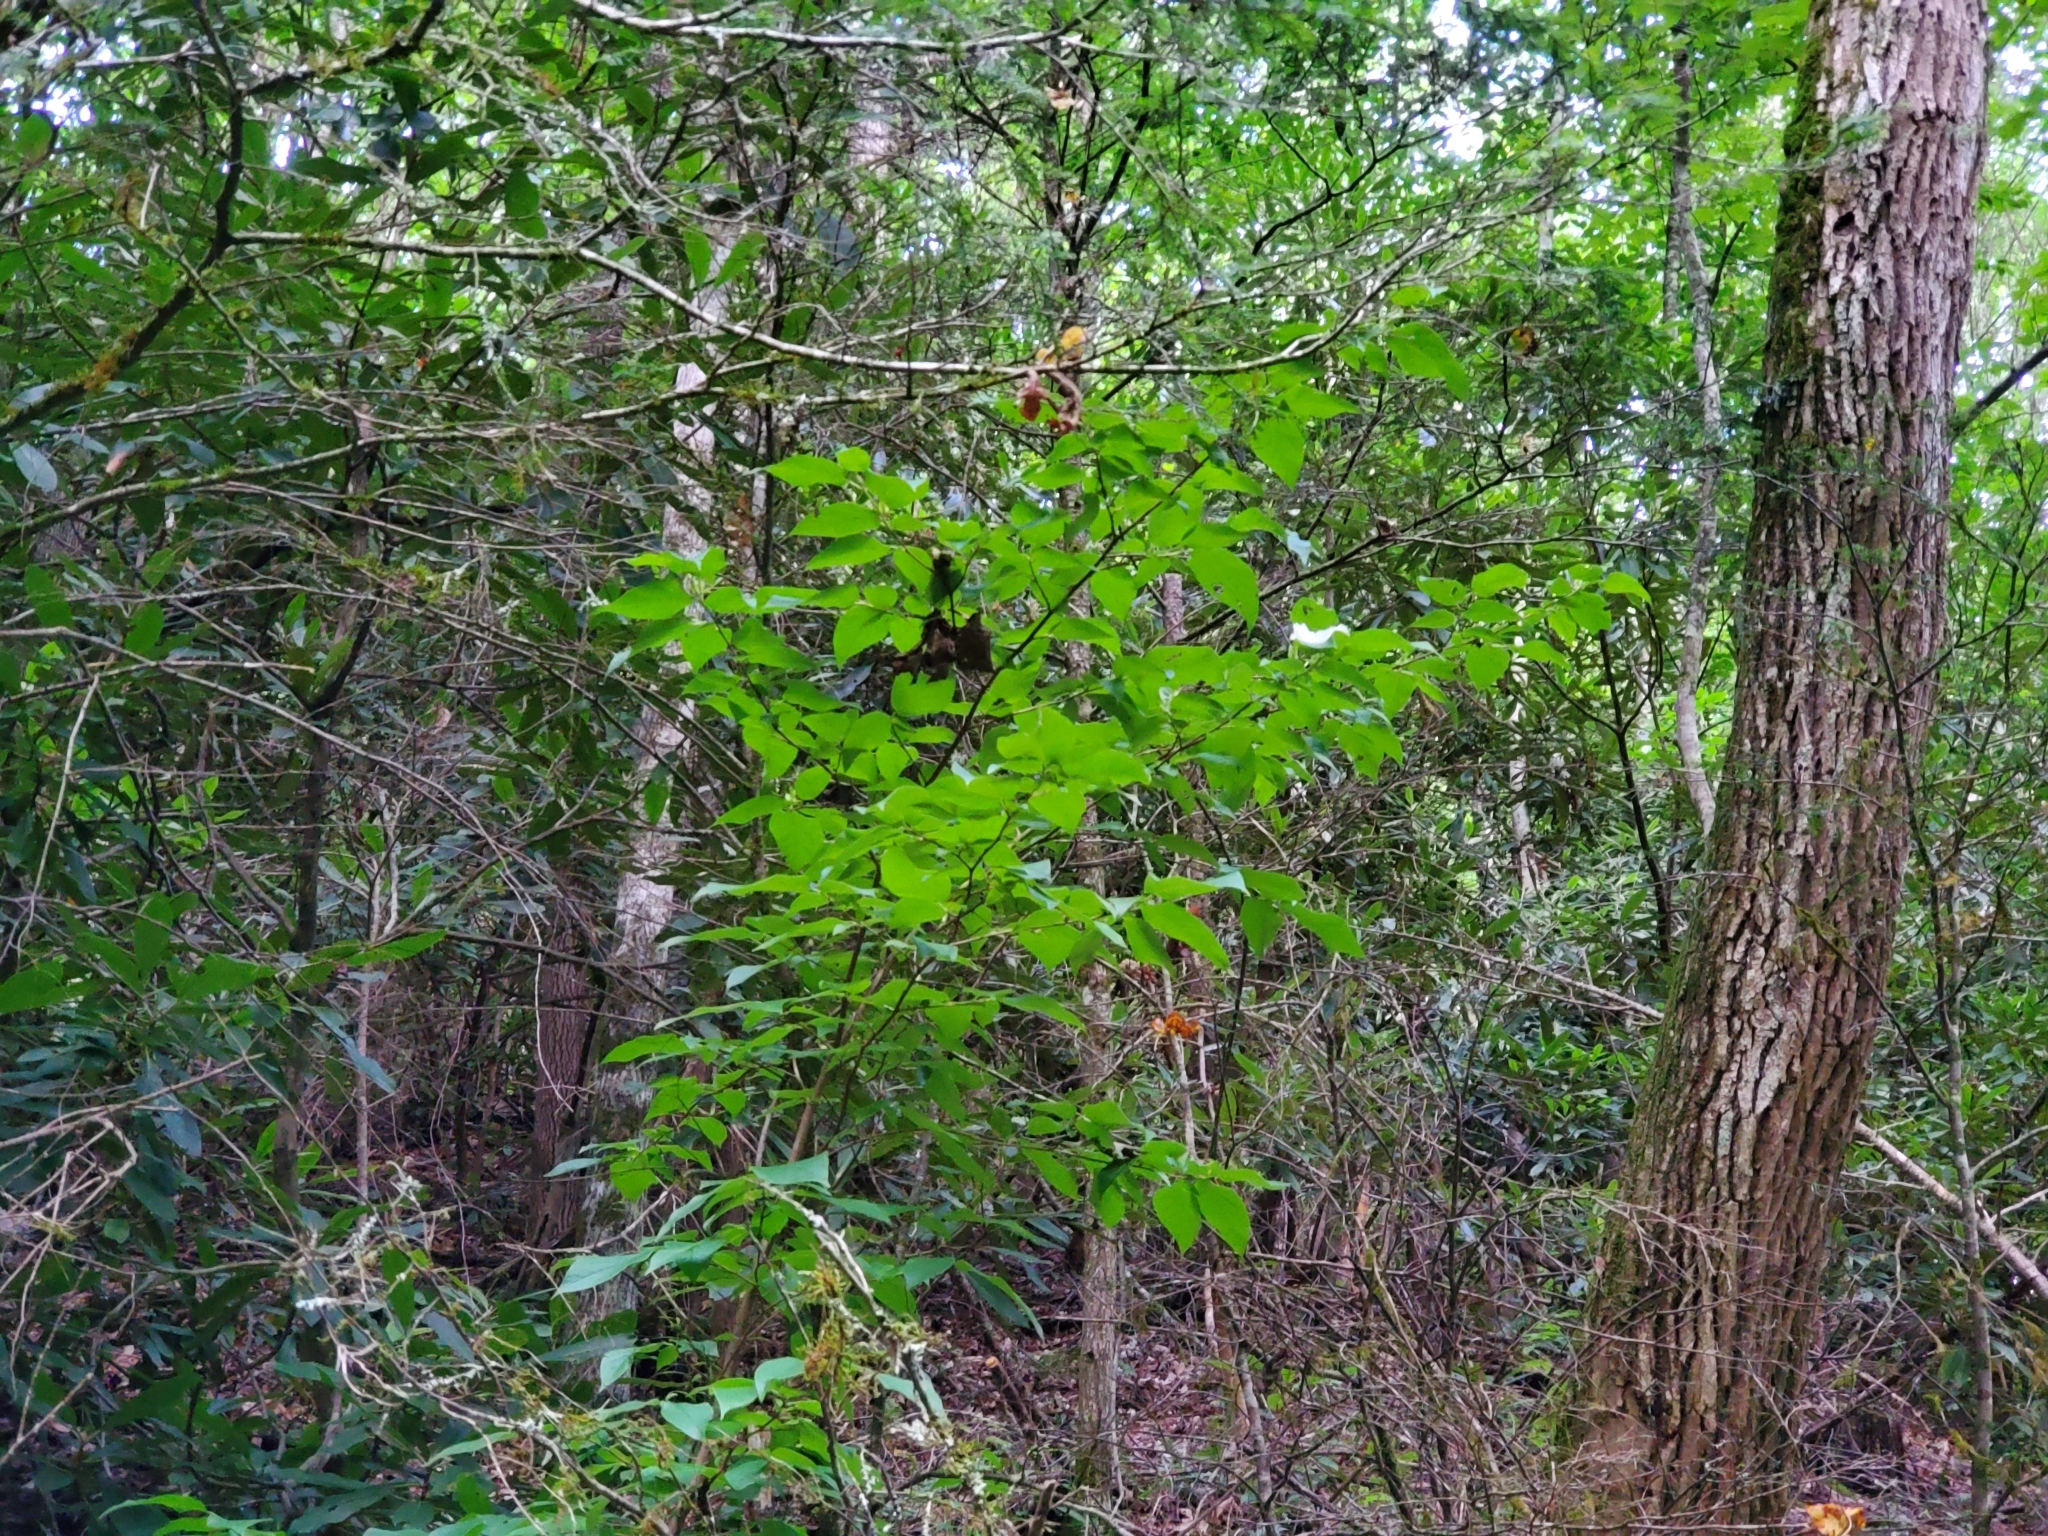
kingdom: Plantae
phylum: Tracheophyta
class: Magnoliopsida
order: Ericales
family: Theaceae
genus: Stewartia
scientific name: Stewartia ovata
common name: Mountain camellia
